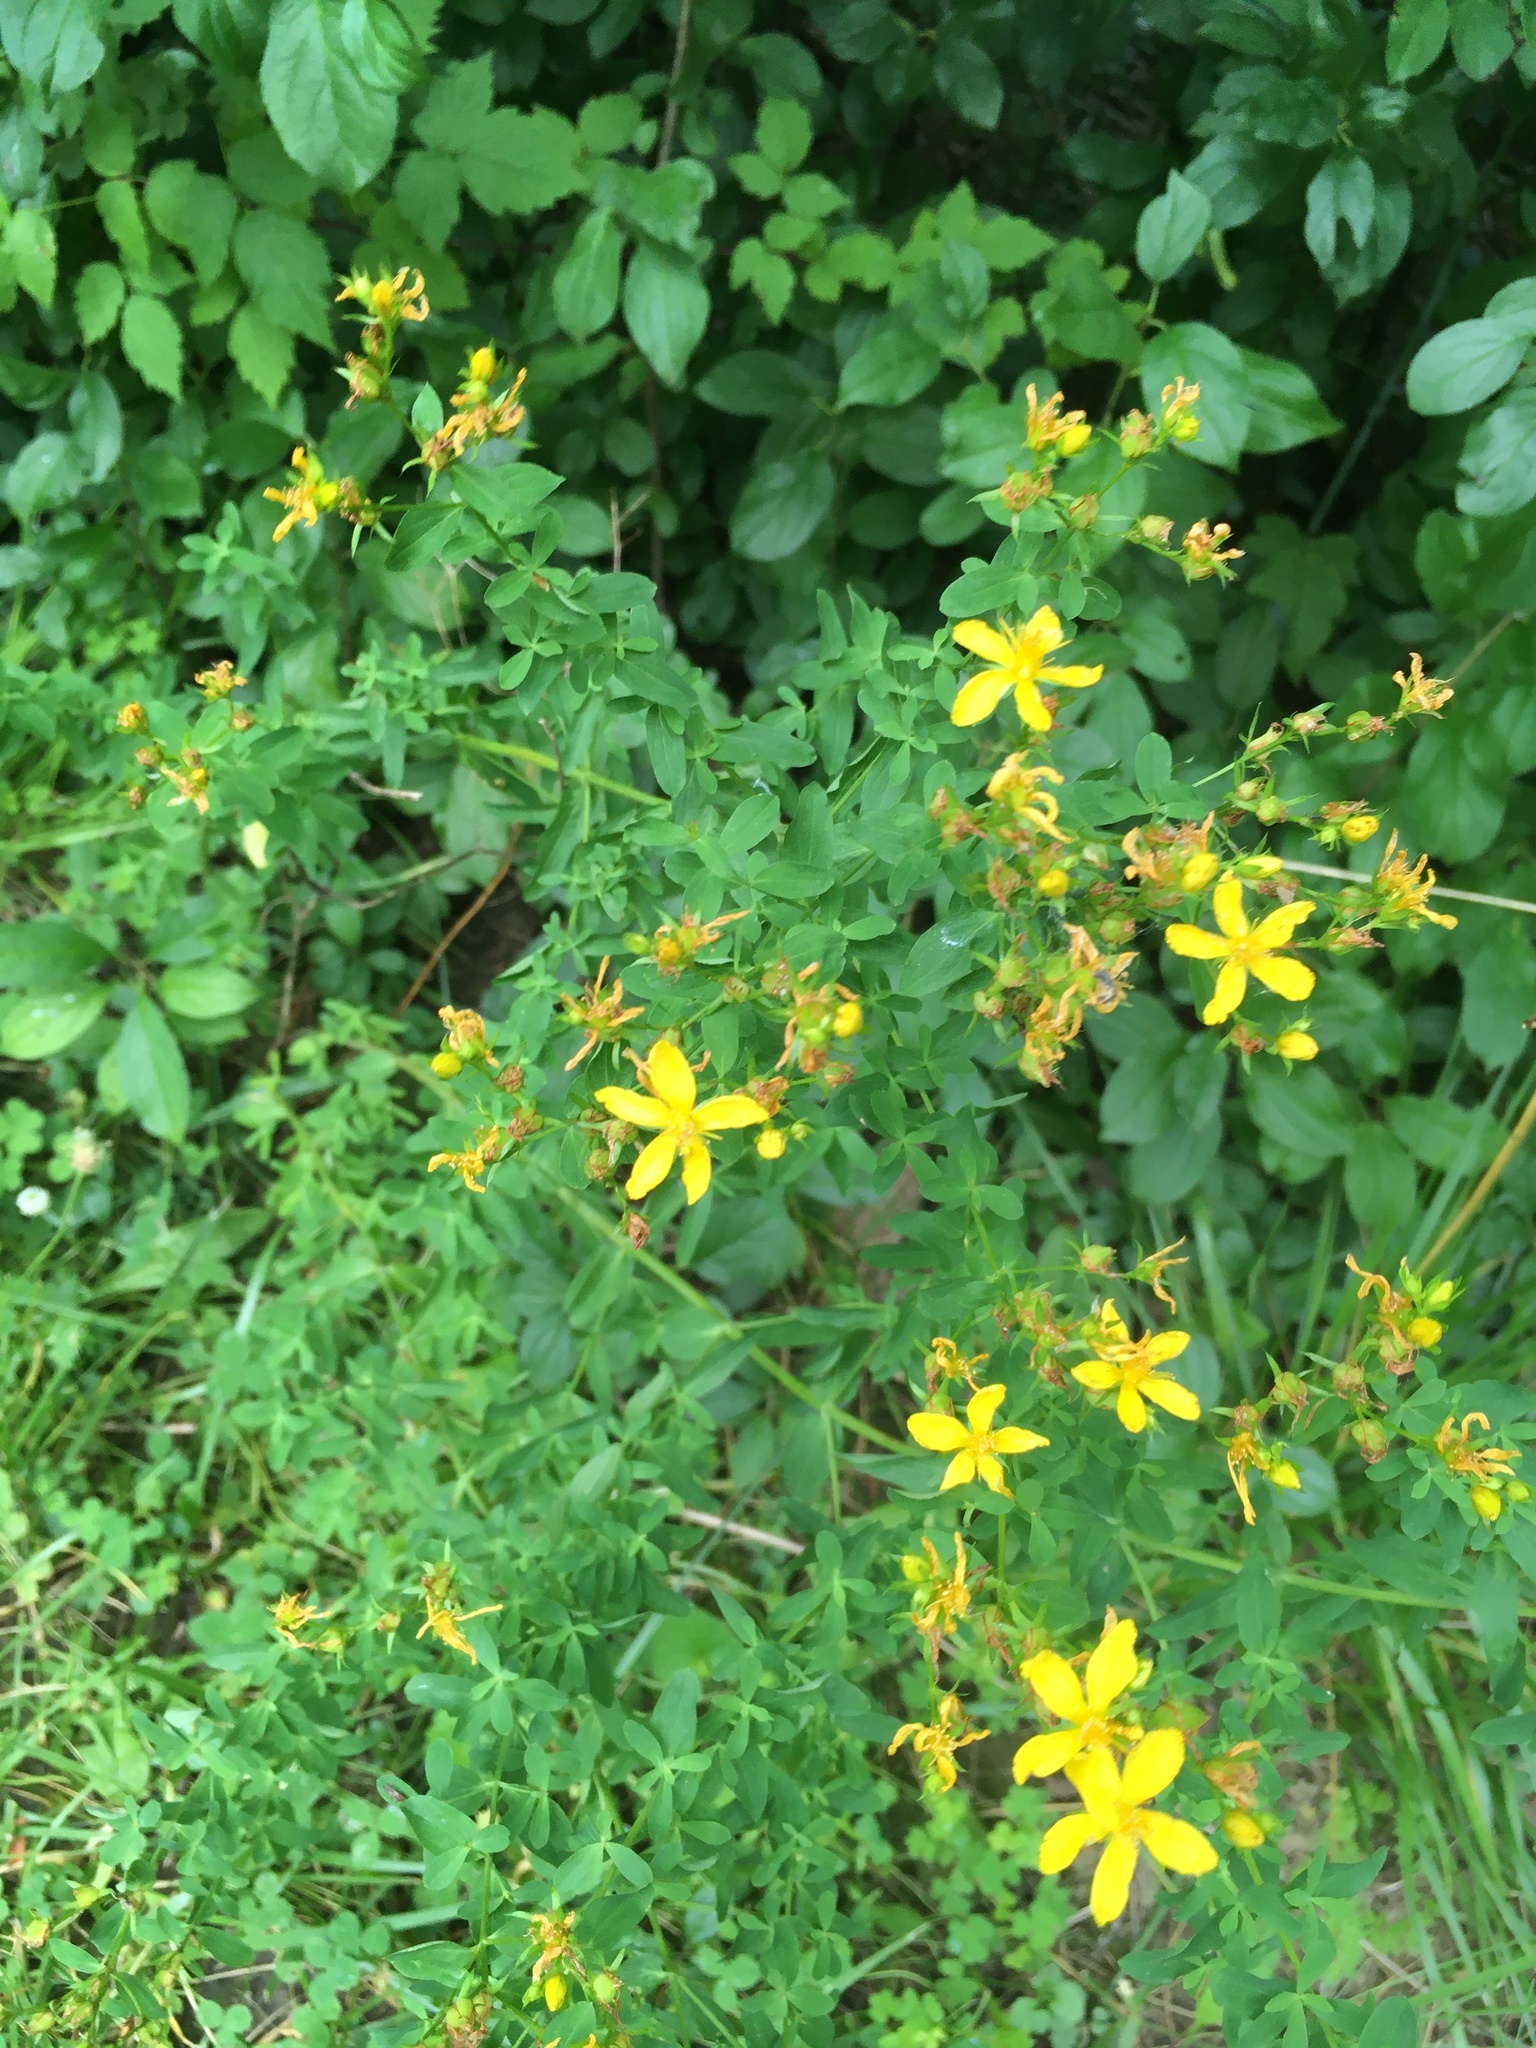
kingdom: Plantae
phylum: Tracheophyta
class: Magnoliopsida
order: Malpighiales
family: Hypericaceae
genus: Hypericum
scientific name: Hypericum perforatum
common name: Common st. johnswort
